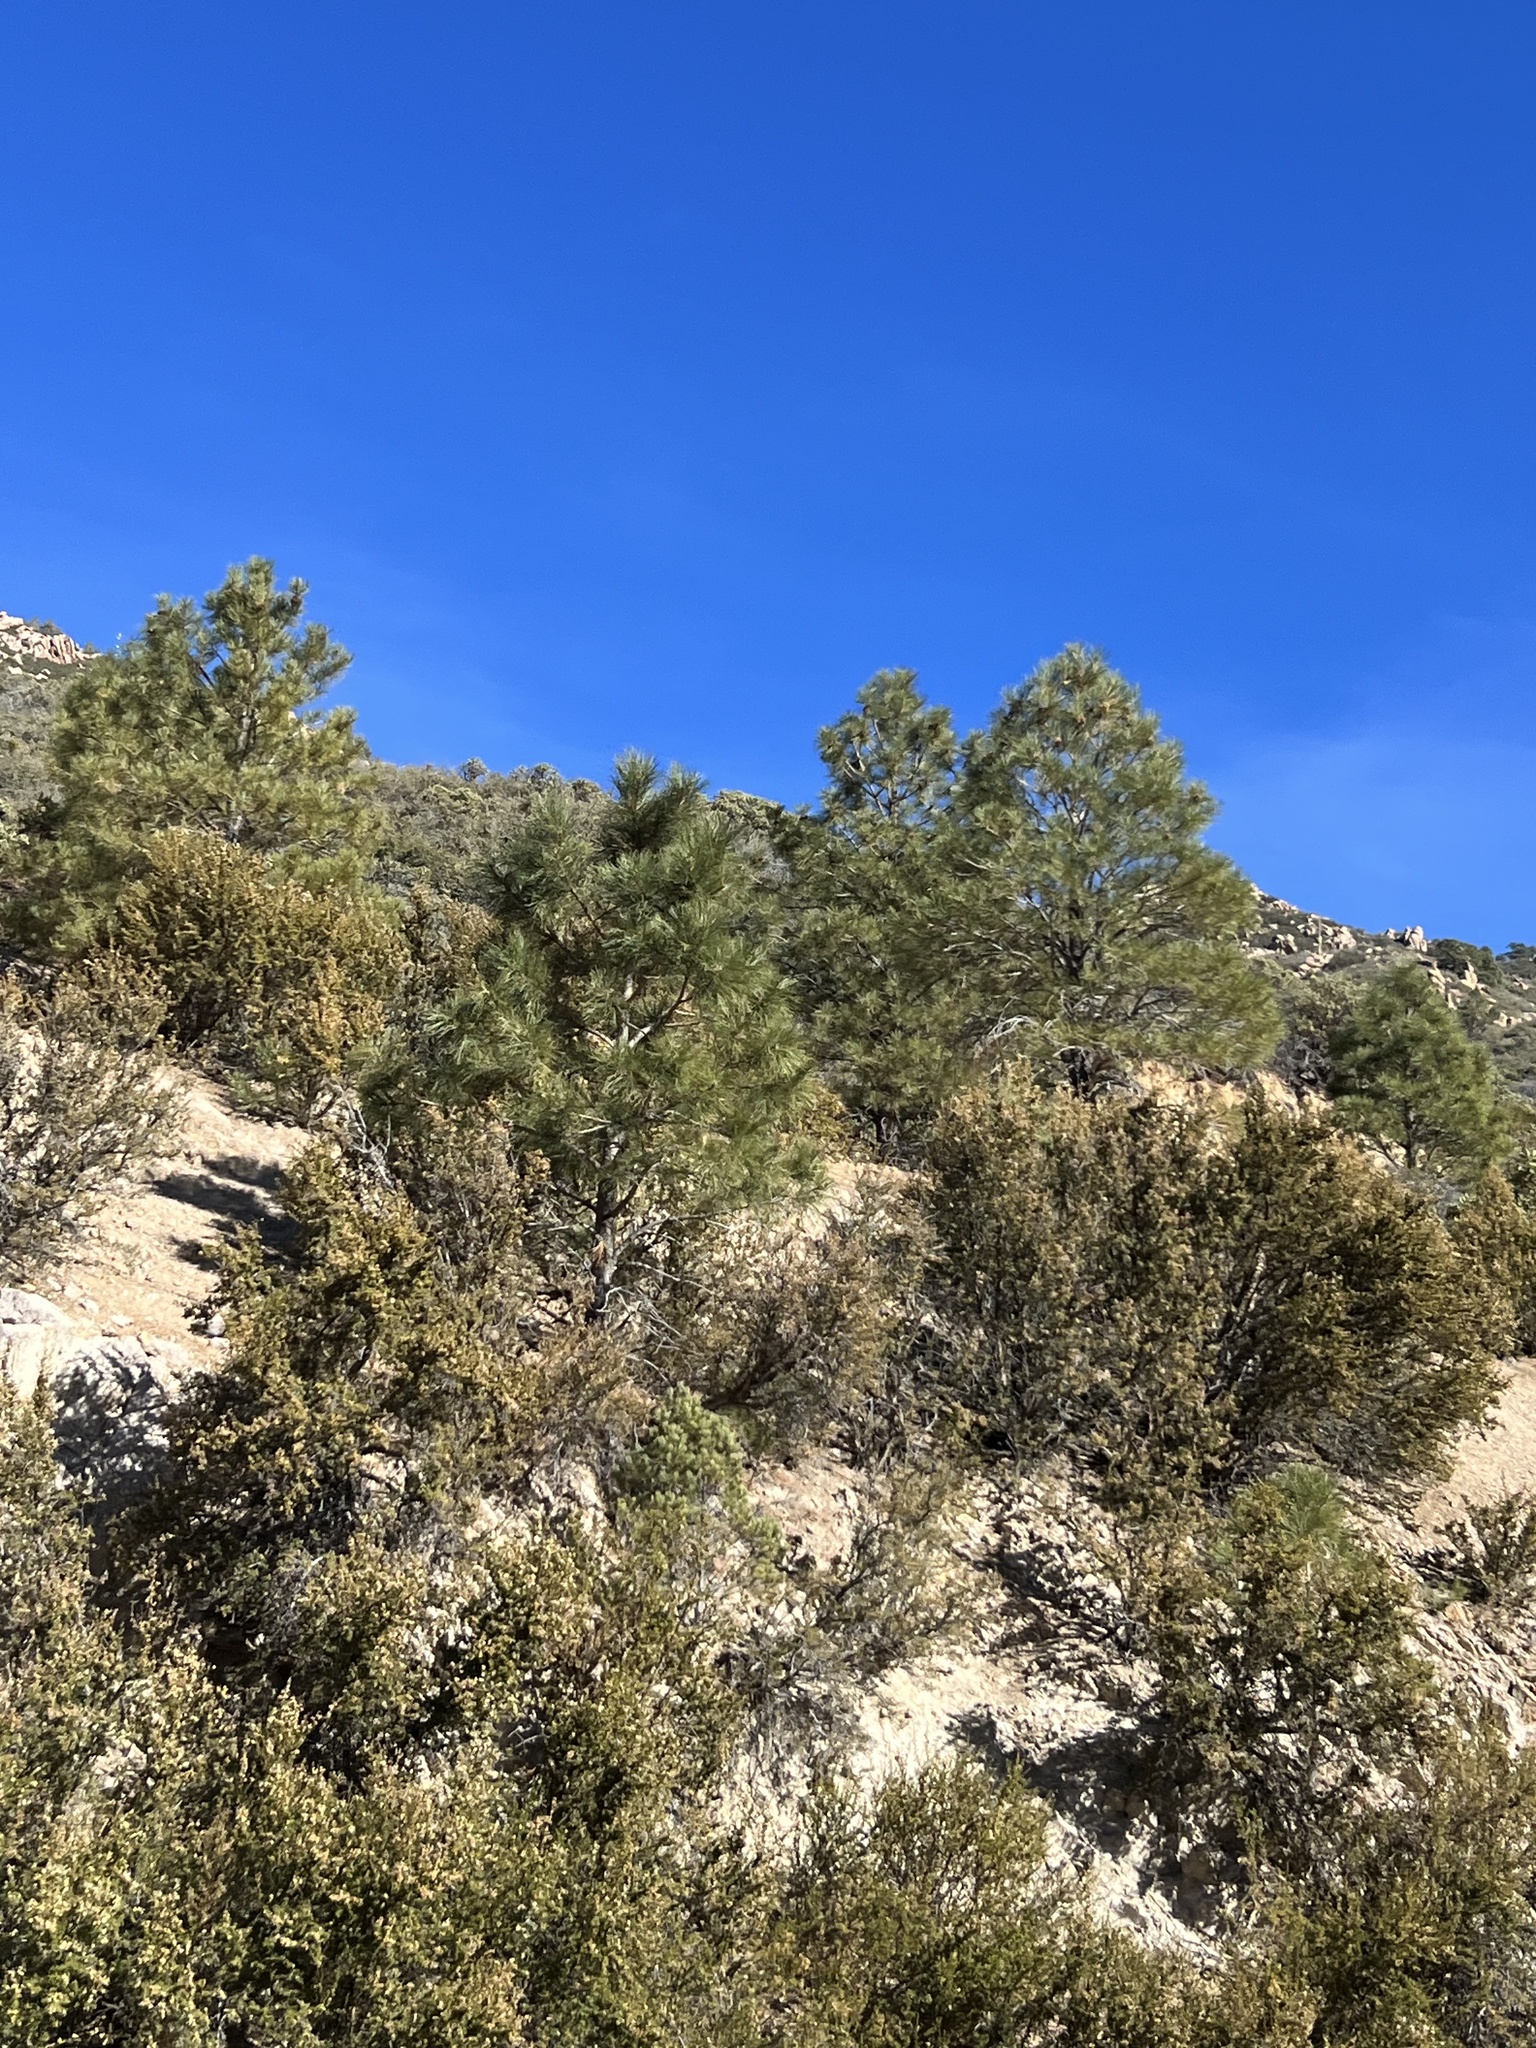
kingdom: Plantae
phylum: Tracheophyta
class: Pinopsida
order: Pinales
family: Pinaceae
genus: Pinus
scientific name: Pinus ponderosa
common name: Western yellow-pine
